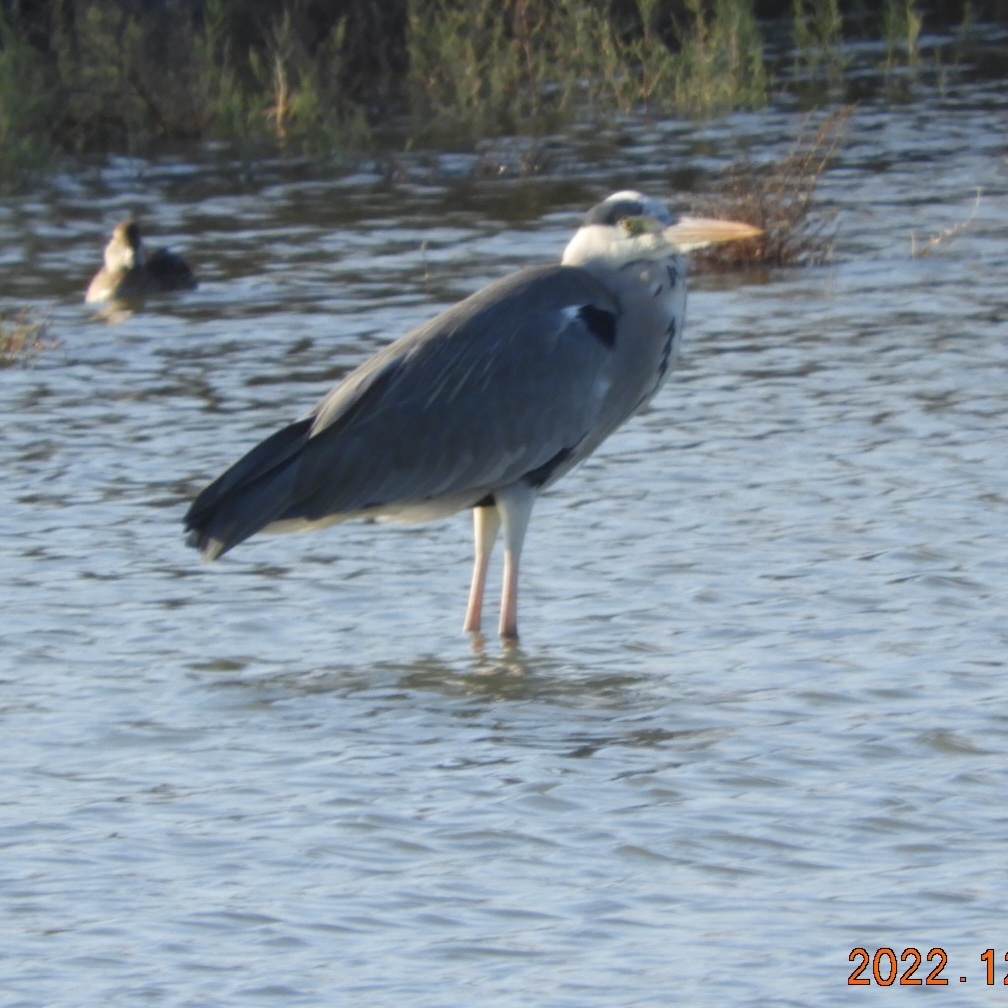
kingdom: Animalia
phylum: Chordata
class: Aves
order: Pelecaniformes
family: Ardeidae
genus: Ardea
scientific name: Ardea cinerea
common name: Grey heron
